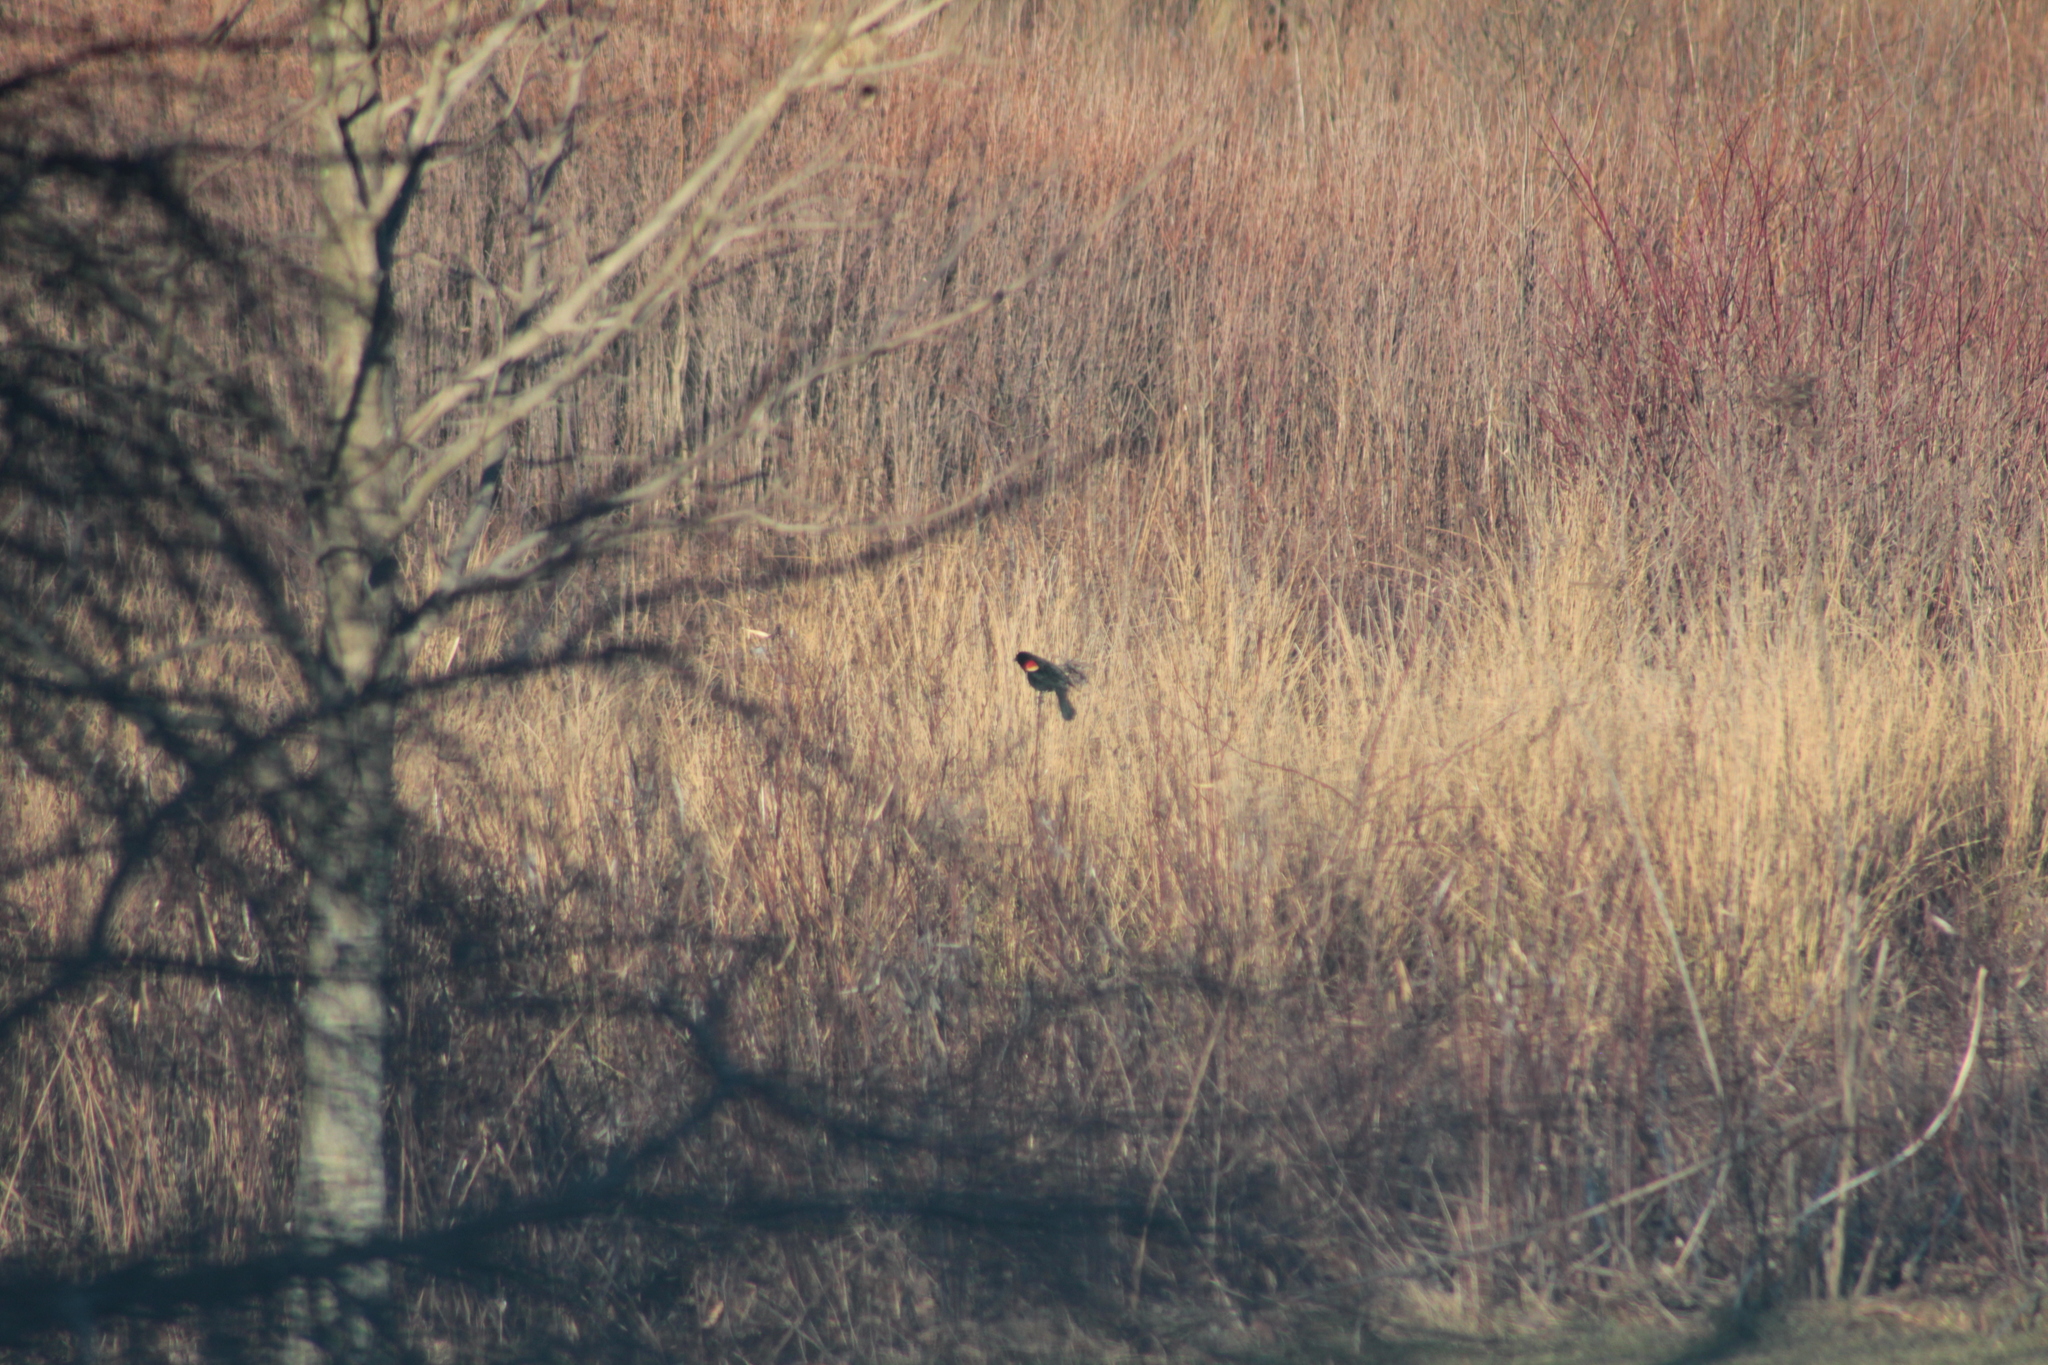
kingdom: Animalia
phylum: Chordata
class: Aves
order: Passeriformes
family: Icteridae
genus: Agelaius
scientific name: Agelaius phoeniceus
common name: Red-winged blackbird
